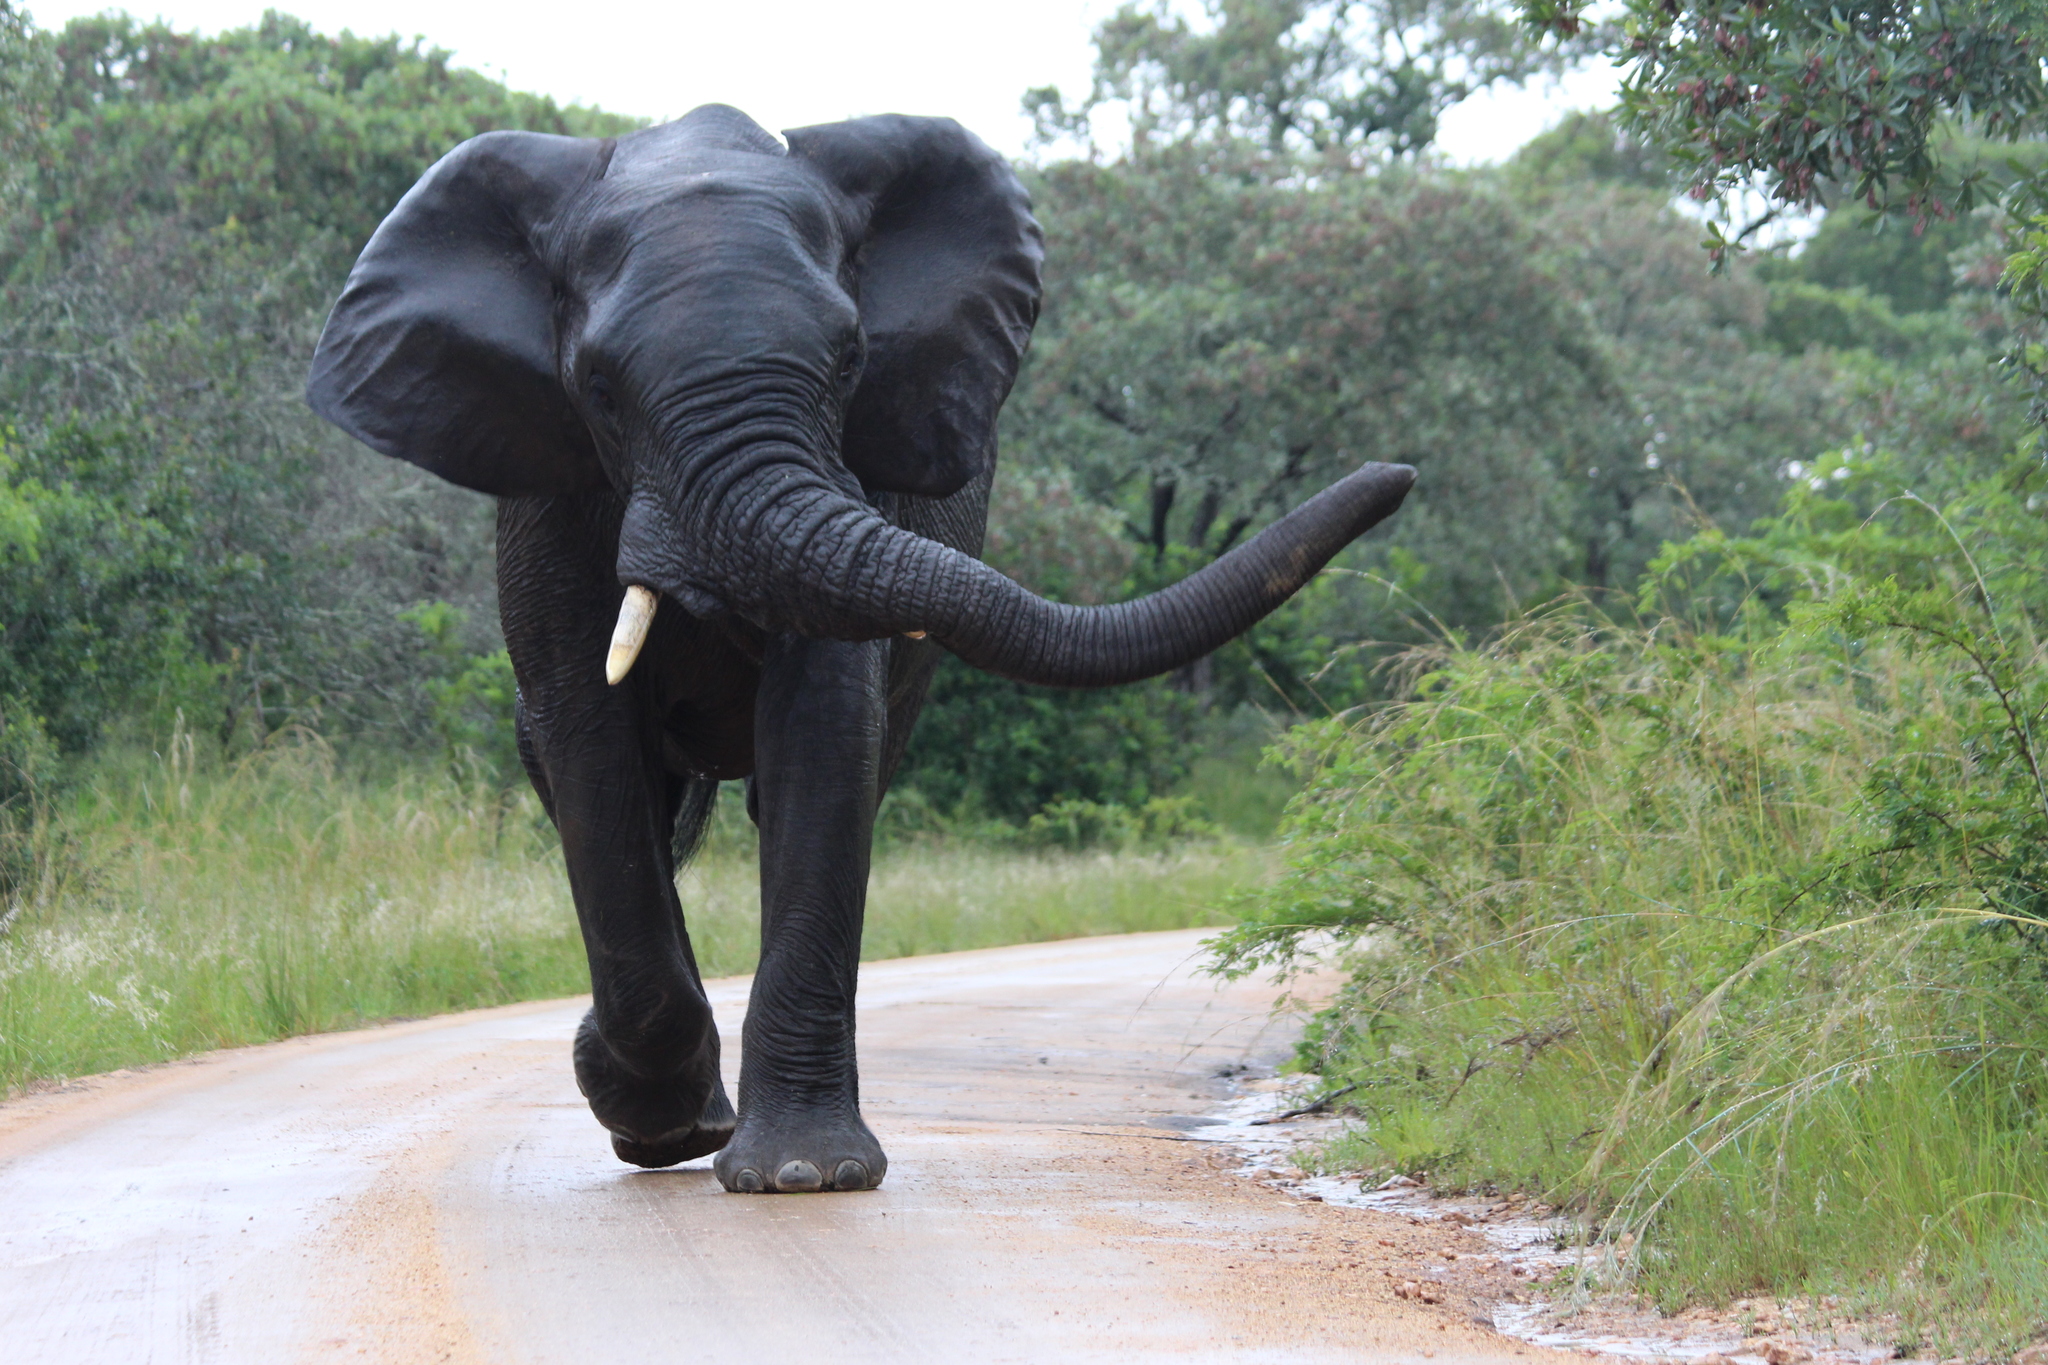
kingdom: Animalia
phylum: Chordata
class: Mammalia
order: Proboscidea
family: Elephantidae
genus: Loxodonta
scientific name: Loxodonta africana
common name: African elephant
